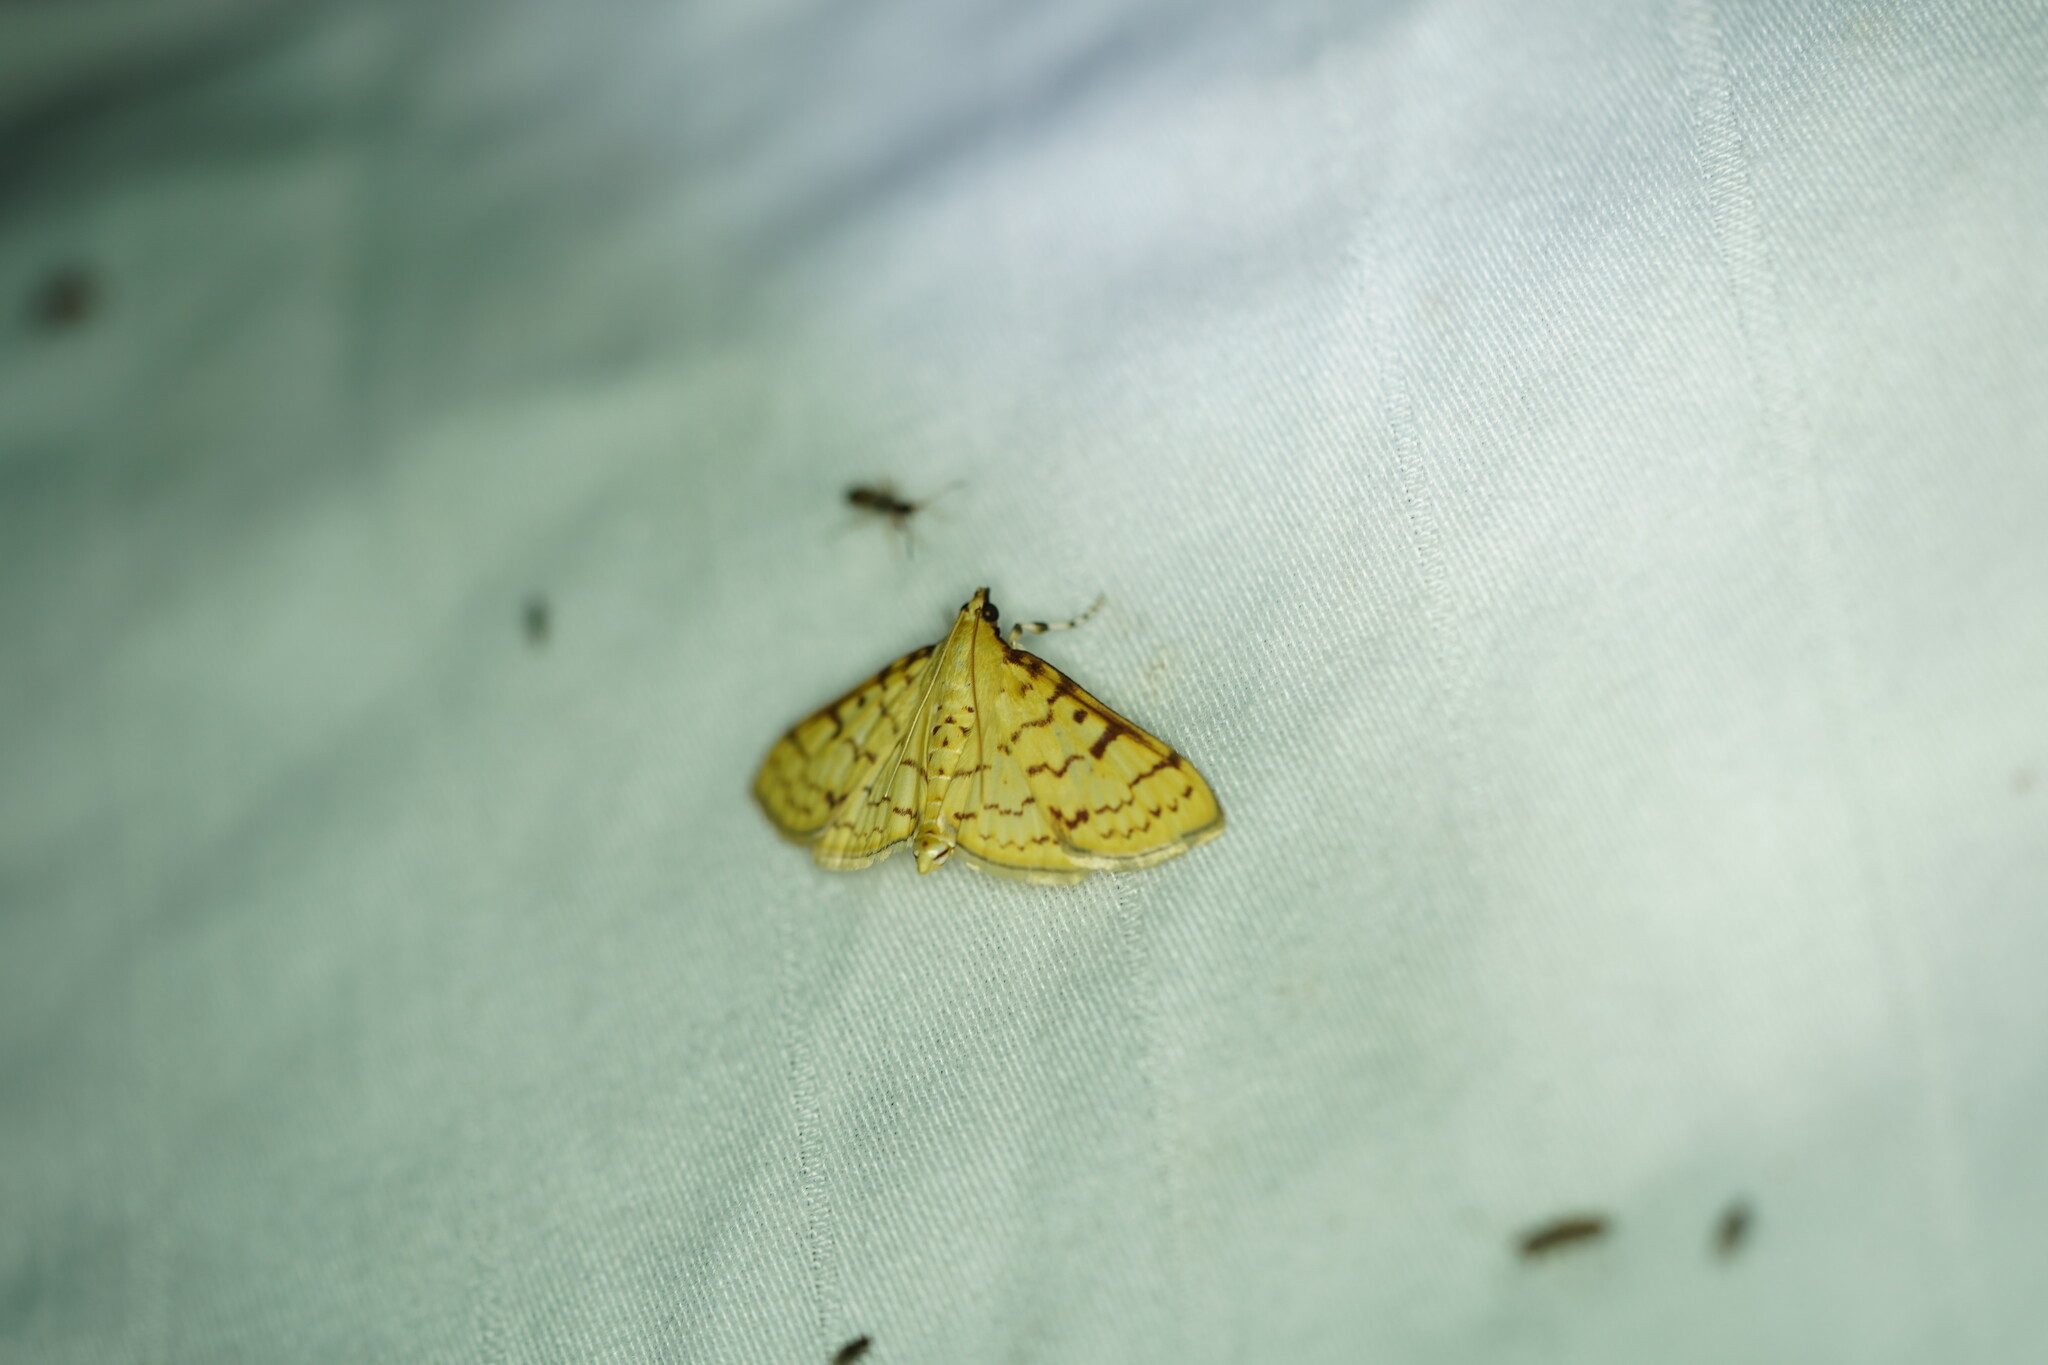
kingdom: Animalia
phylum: Arthropoda
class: Insecta
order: Lepidoptera
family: Crambidae
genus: Polygrammodes
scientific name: Polygrammodes flavidalis
